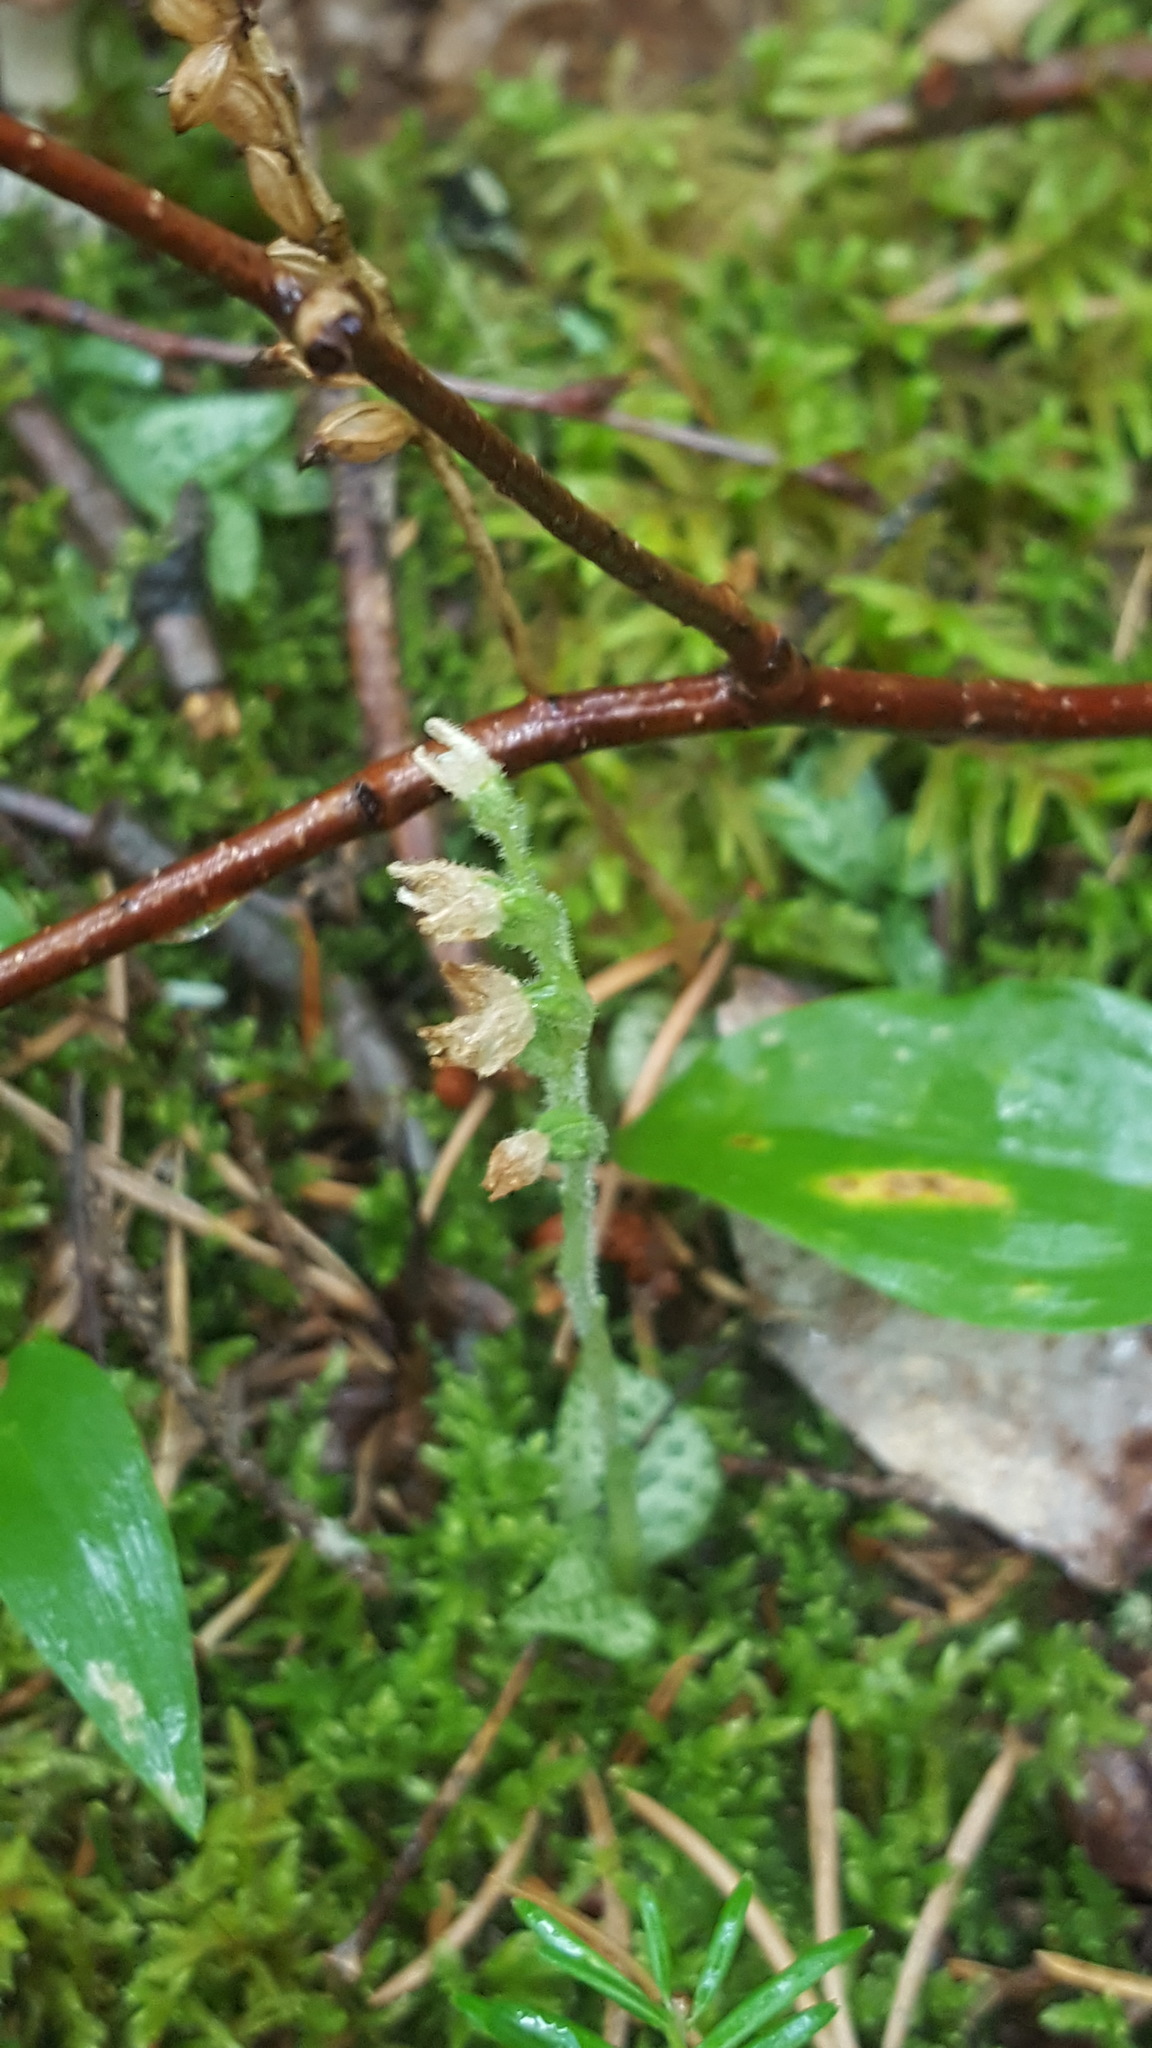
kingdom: Plantae
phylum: Tracheophyta
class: Liliopsida
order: Asparagales
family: Orchidaceae
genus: Goodyera
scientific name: Goodyera repens
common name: Creeping lady's-tresses
